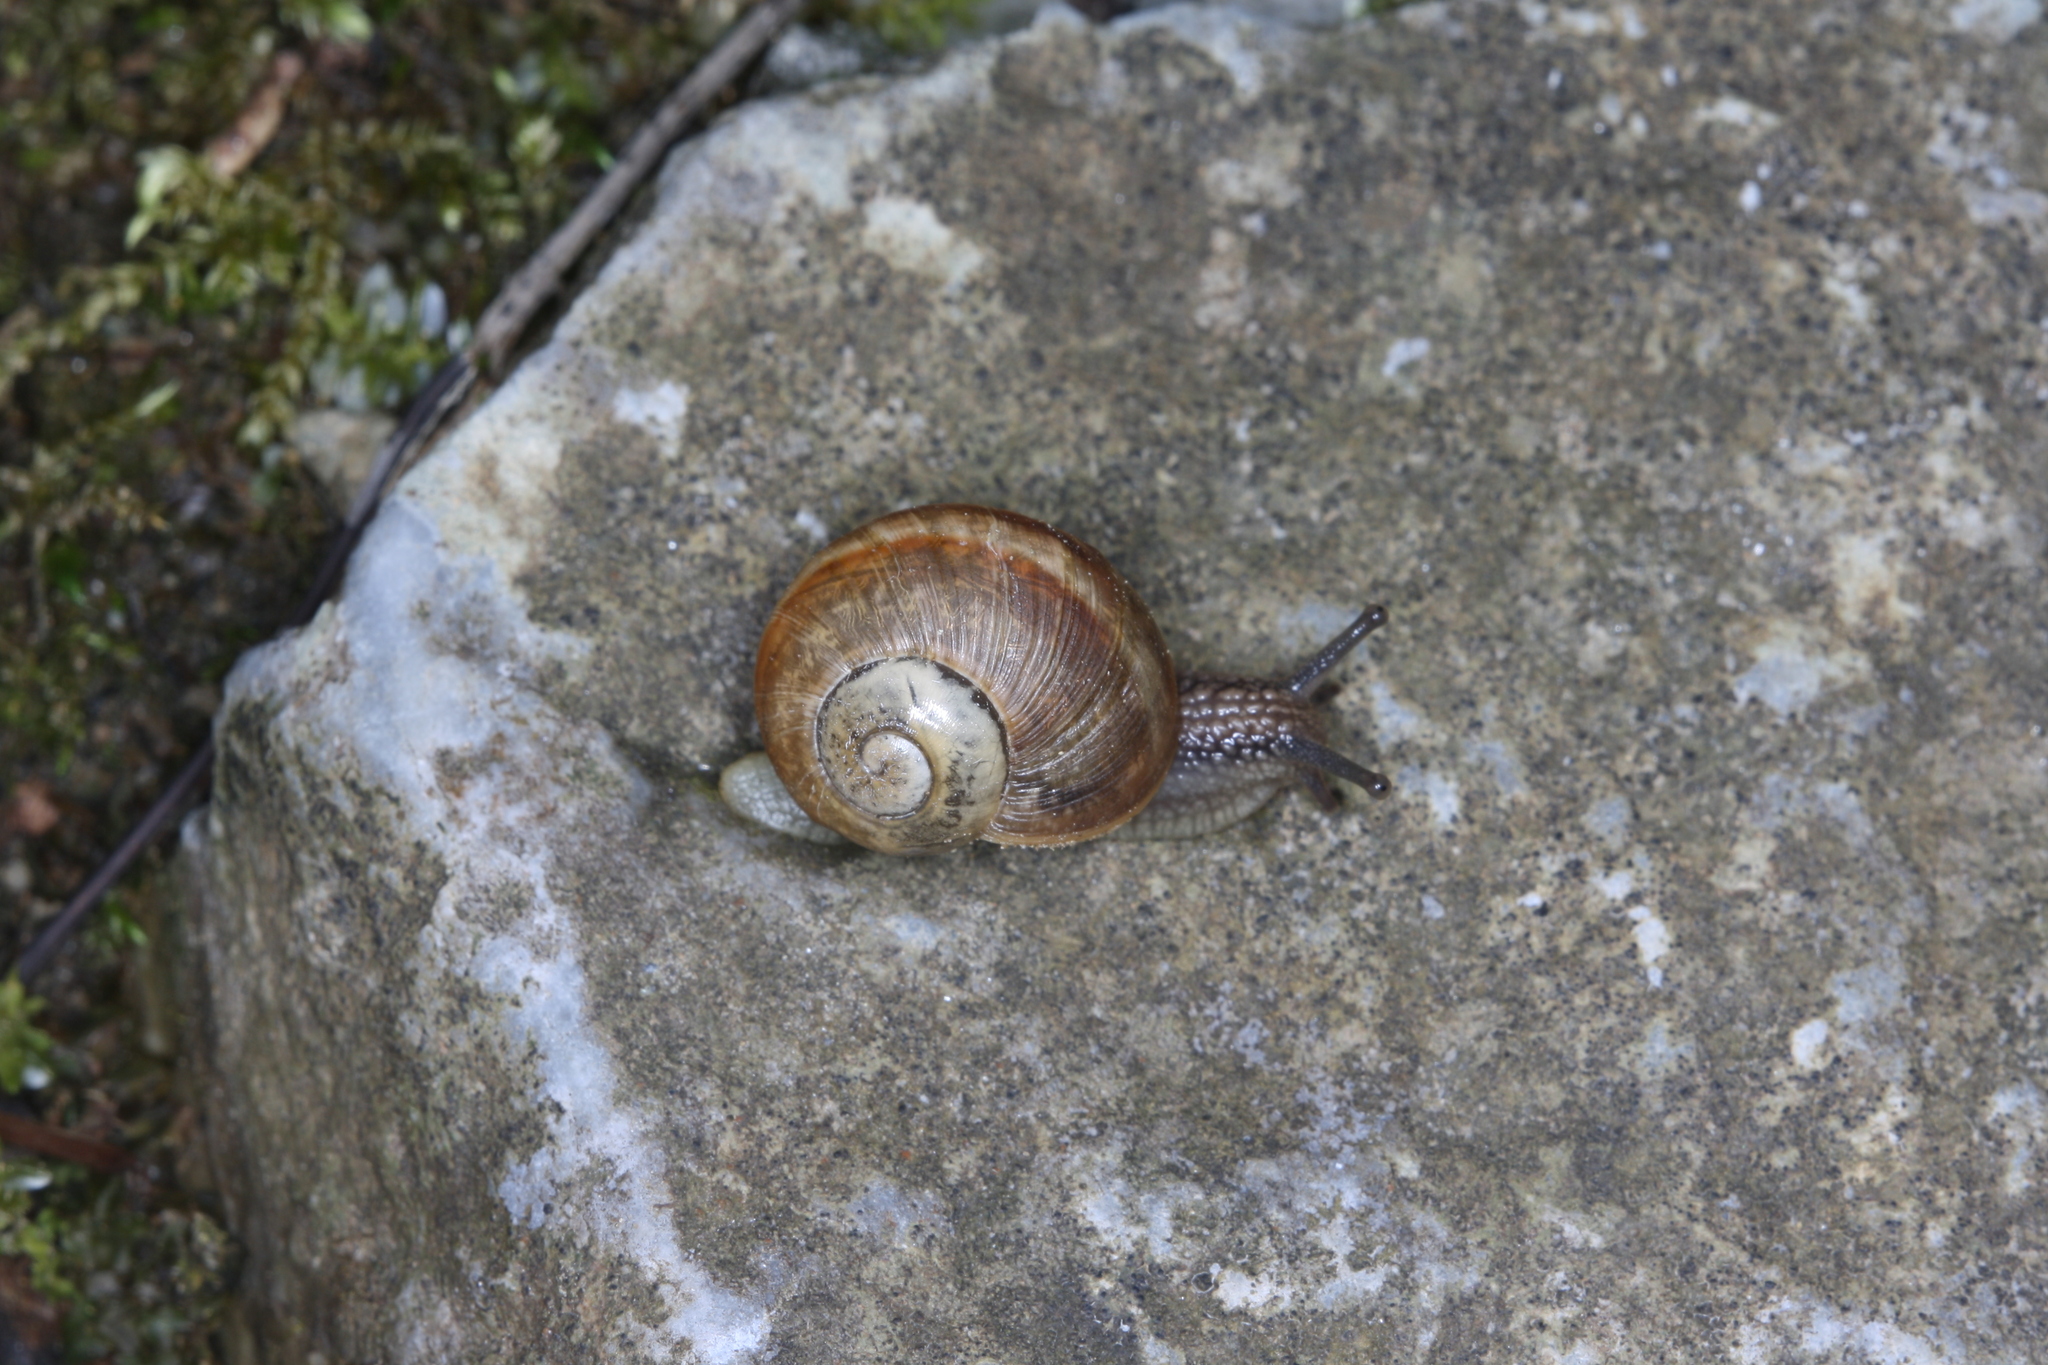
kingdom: Animalia
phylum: Mollusca
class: Gastropoda
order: Stylommatophora
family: Helicidae
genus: Helix
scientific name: Helix pomatia
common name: Roman snail
